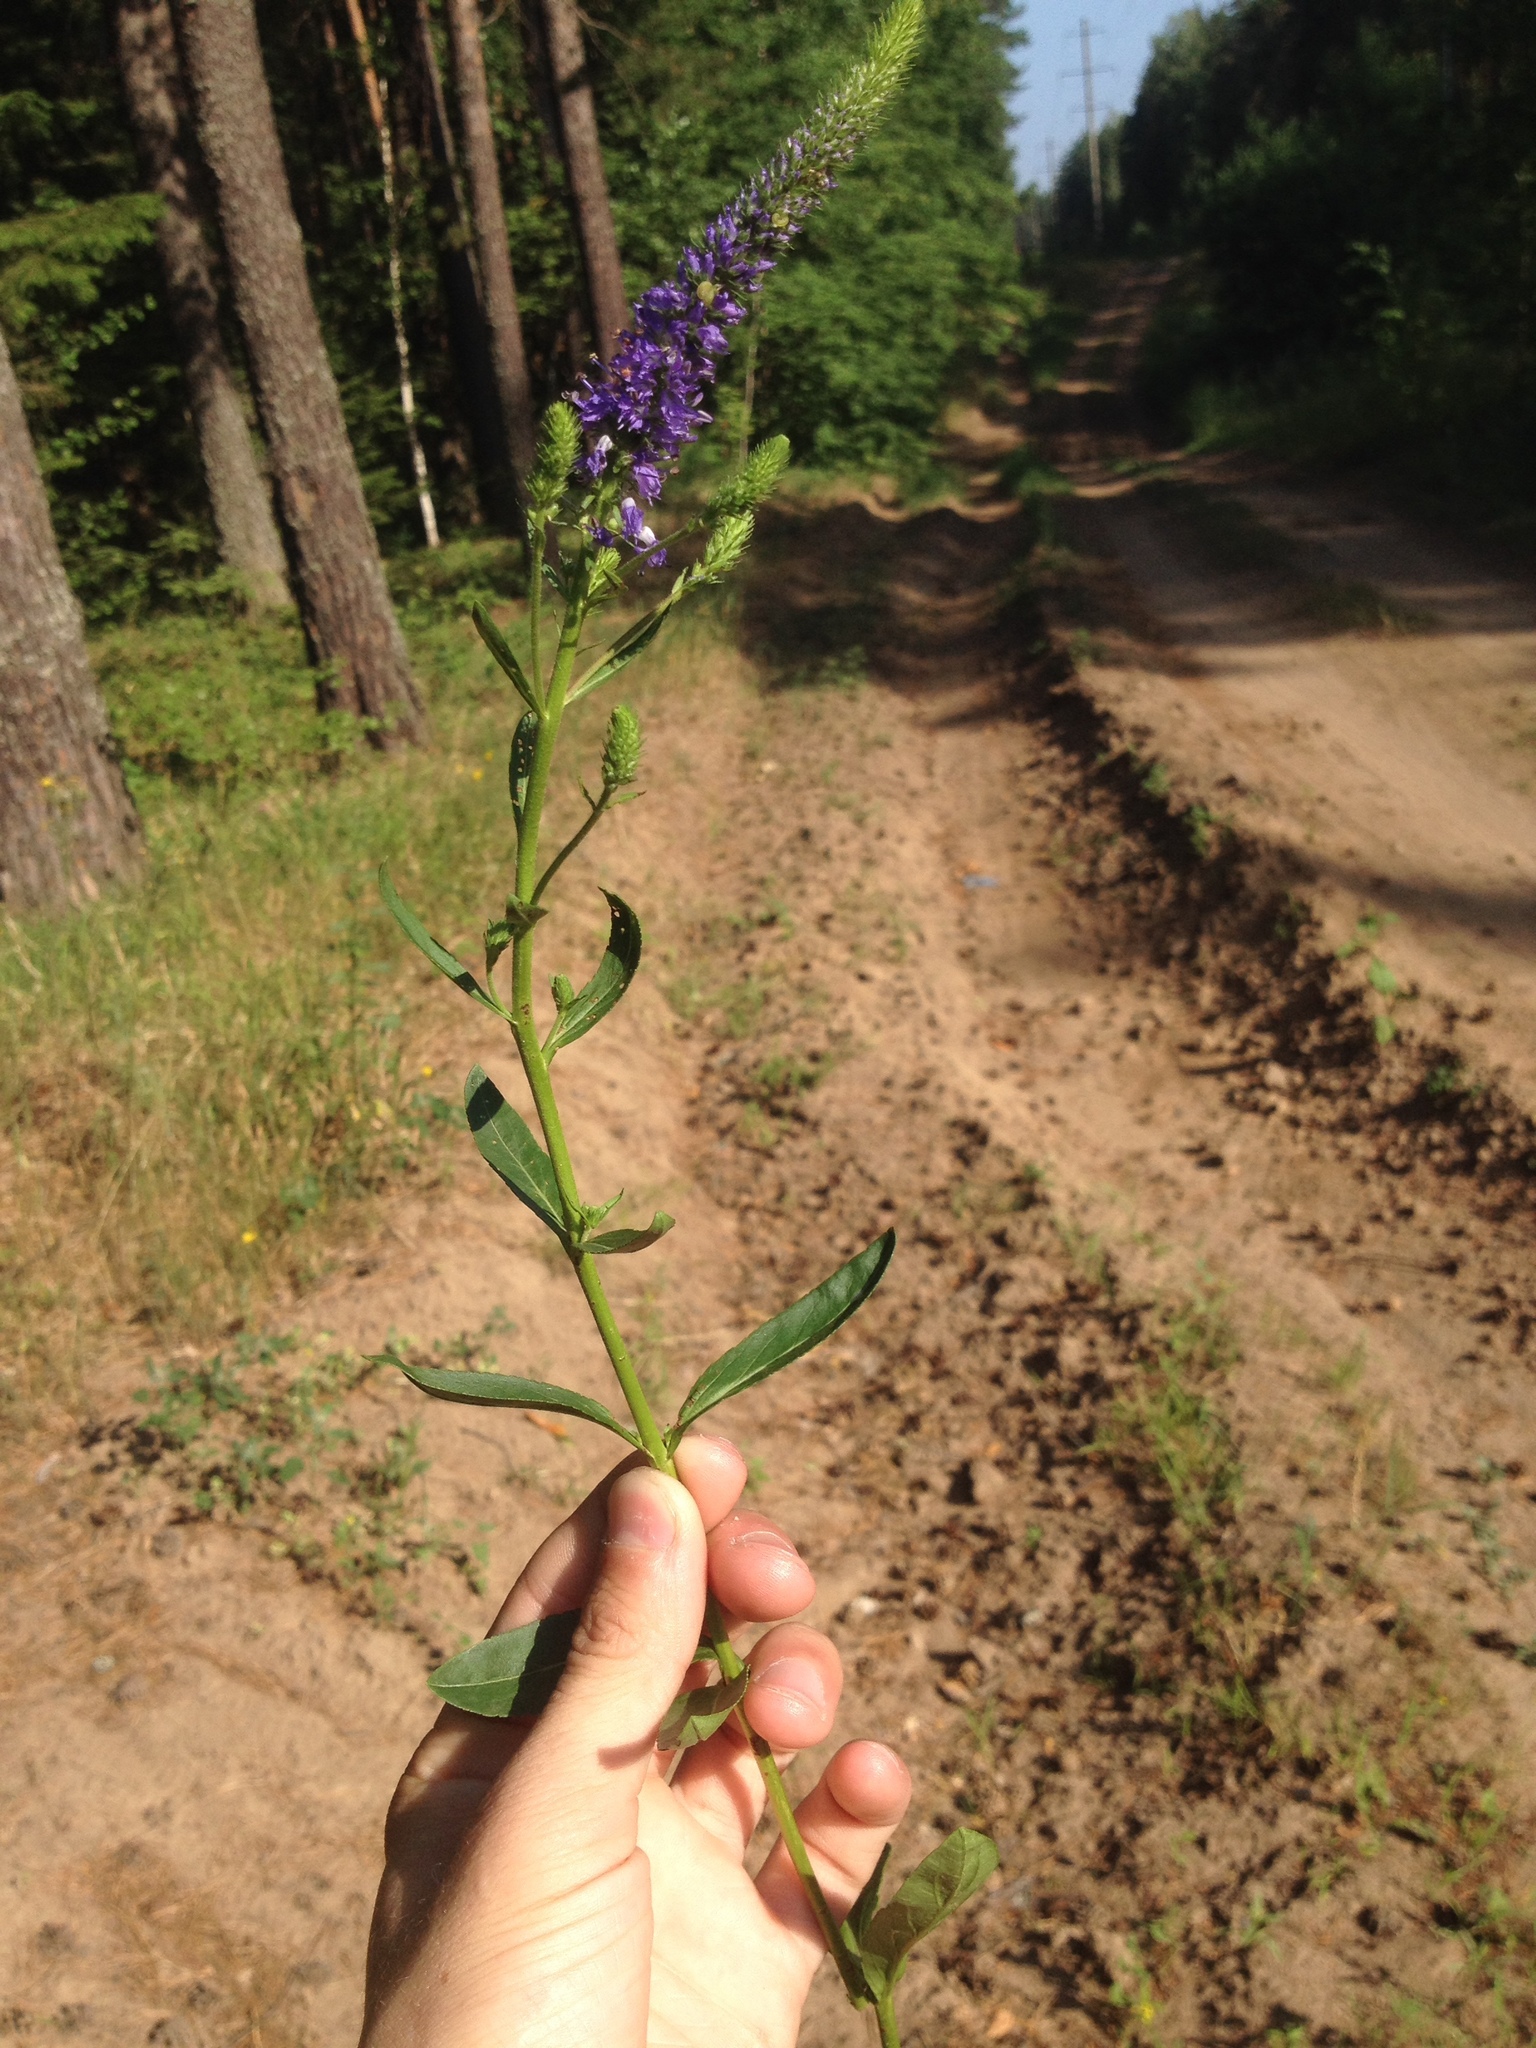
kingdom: Plantae
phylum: Tracheophyta
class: Magnoliopsida
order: Lamiales
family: Plantaginaceae
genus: Veronica
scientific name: Veronica spicata
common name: Spiked speedwell
